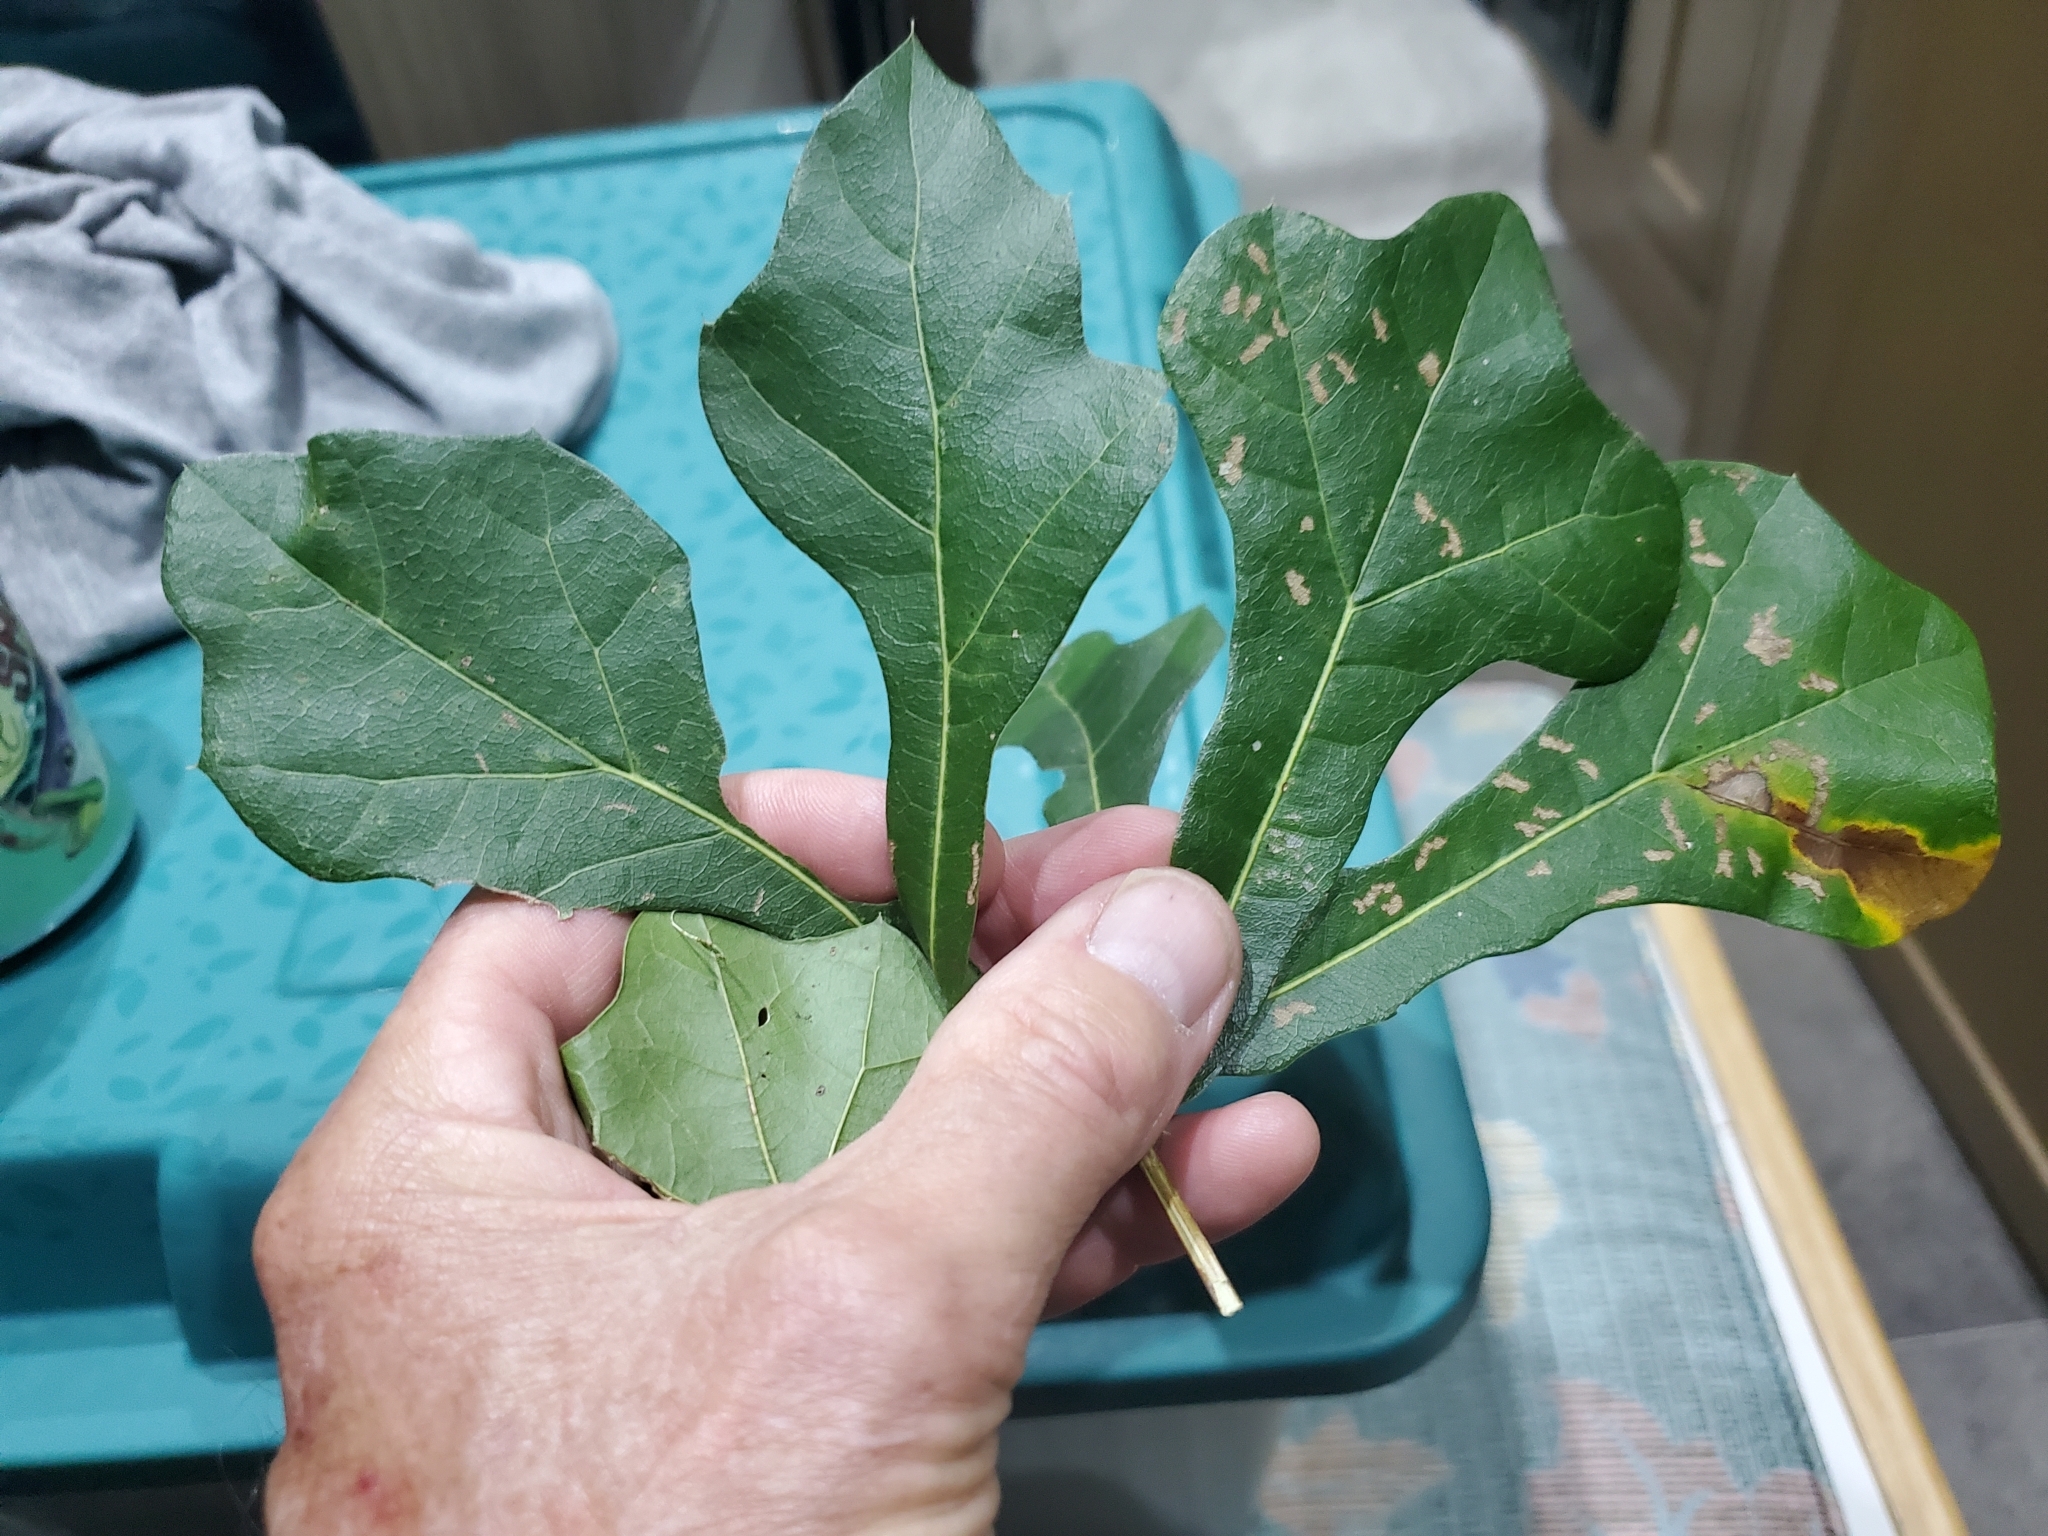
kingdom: Plantae
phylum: Tracheophyta
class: Magnoliopsida
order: Fagales
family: Fagaceae
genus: Quercus
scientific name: Quercus nigra
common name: Water oak
